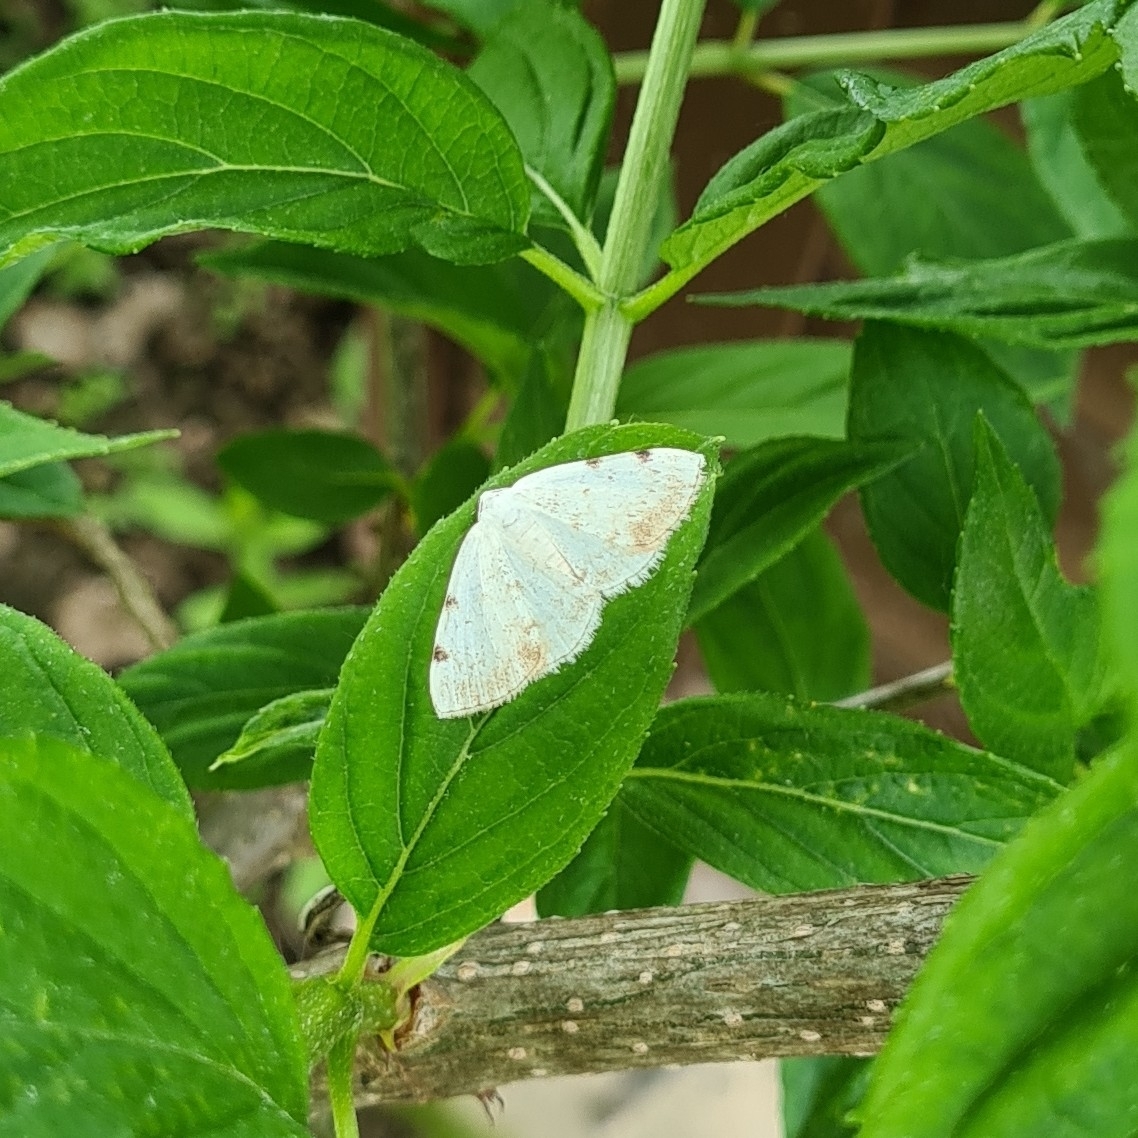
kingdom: Animalia
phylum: Arthropoda
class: Insecta
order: Lepidoptera
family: Geometridae
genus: Lomographa
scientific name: Lomographa bimaculata
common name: White-pinion spotted
